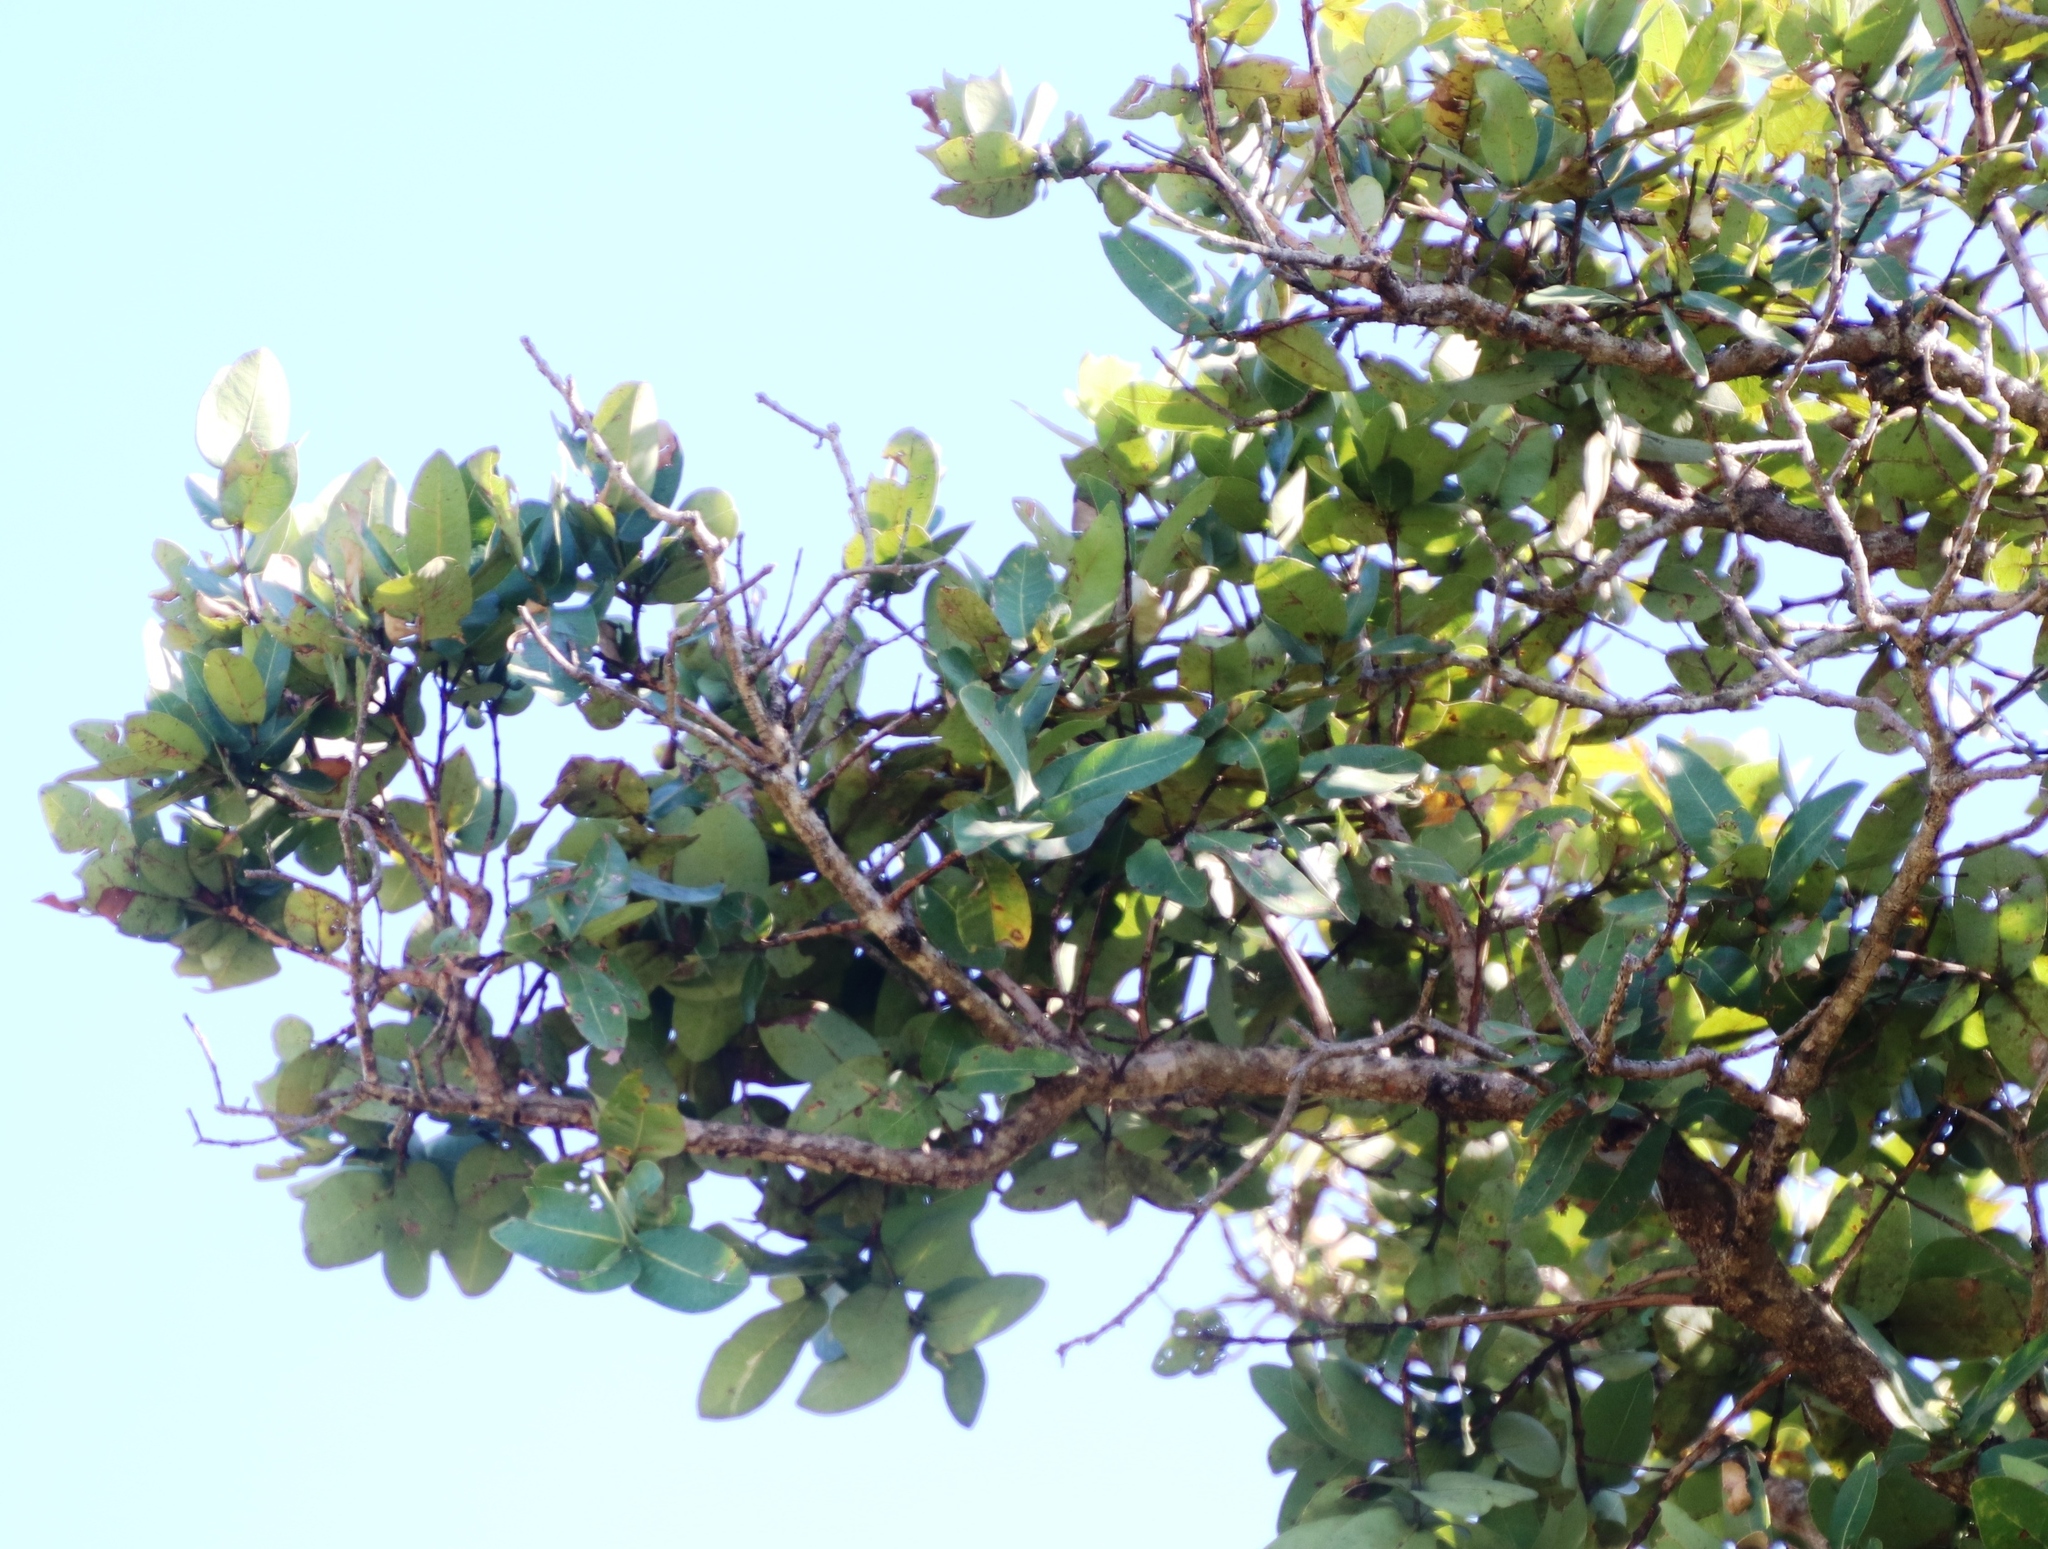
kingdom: Plantae
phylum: Tracheophyta
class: Magnoliopsida
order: Myrtales
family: Myrtaceae
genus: Syzygium
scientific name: Syzygium cordatum
